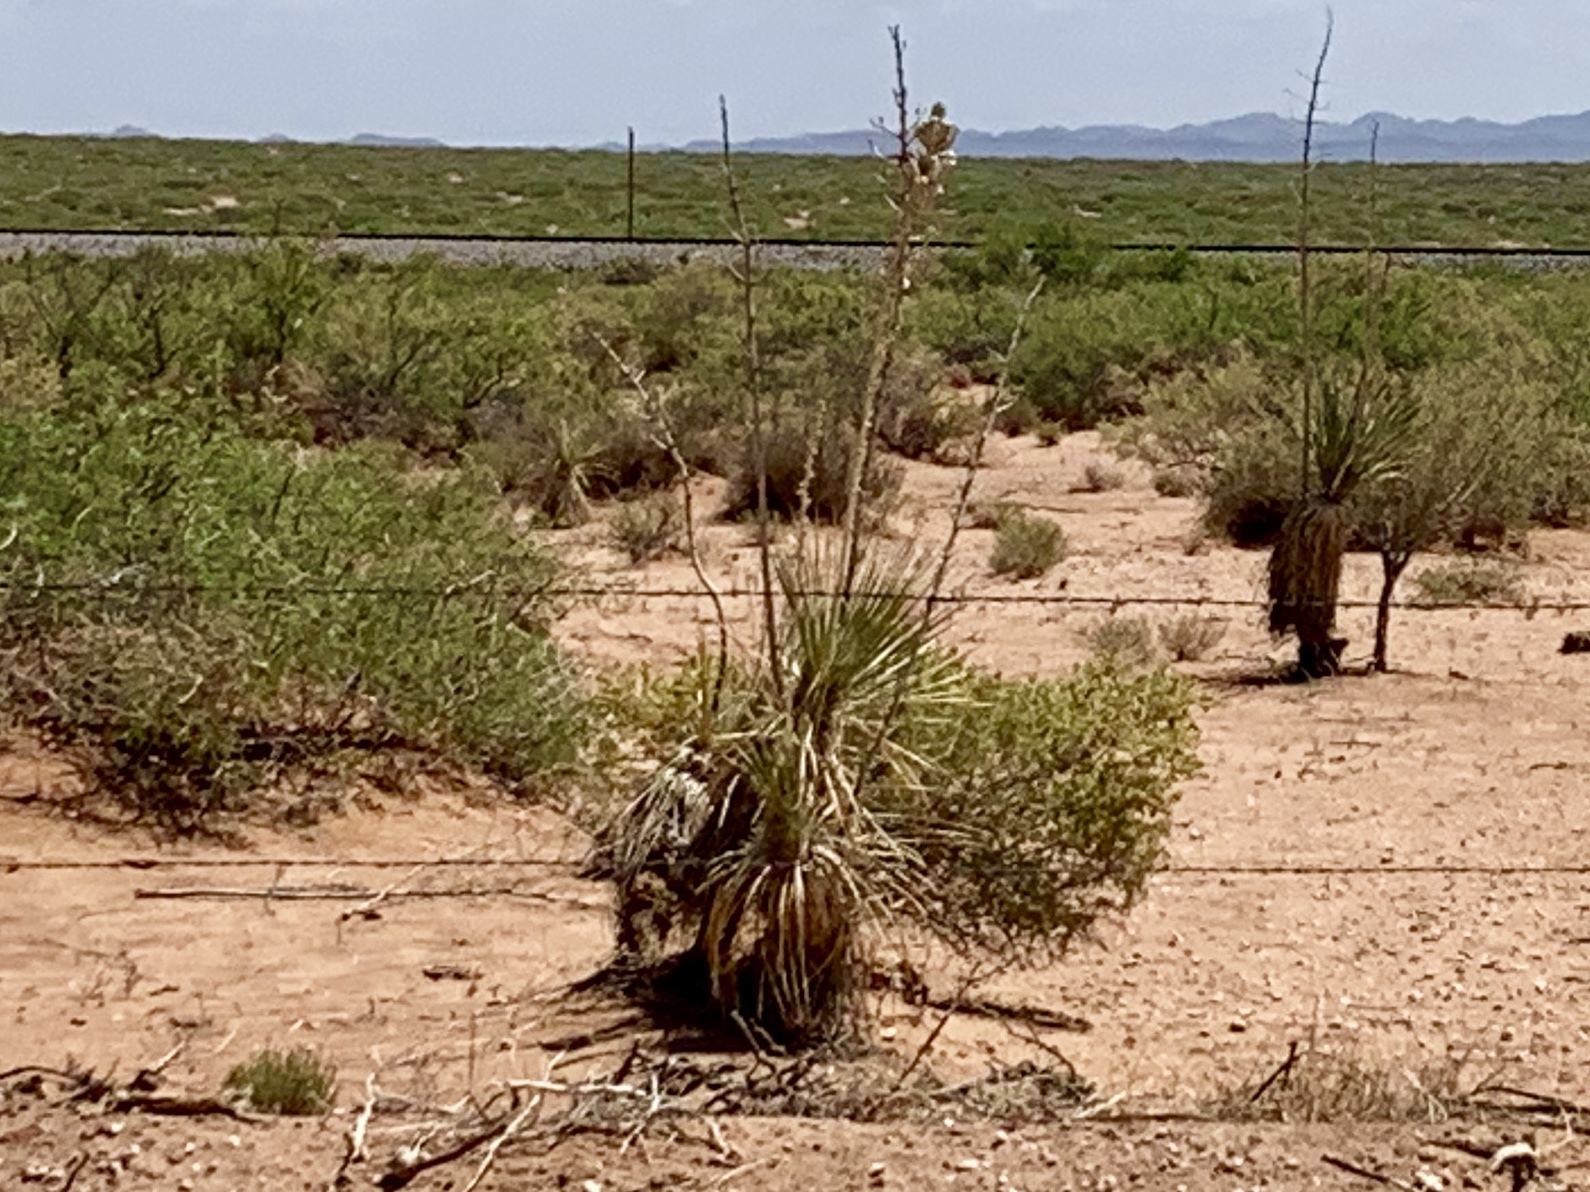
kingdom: Plantae
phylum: Tracheophyta
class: Liliopsida
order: Asparagales
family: Asparagaceae
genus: Yucca
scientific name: Yucca elata
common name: Palmella
